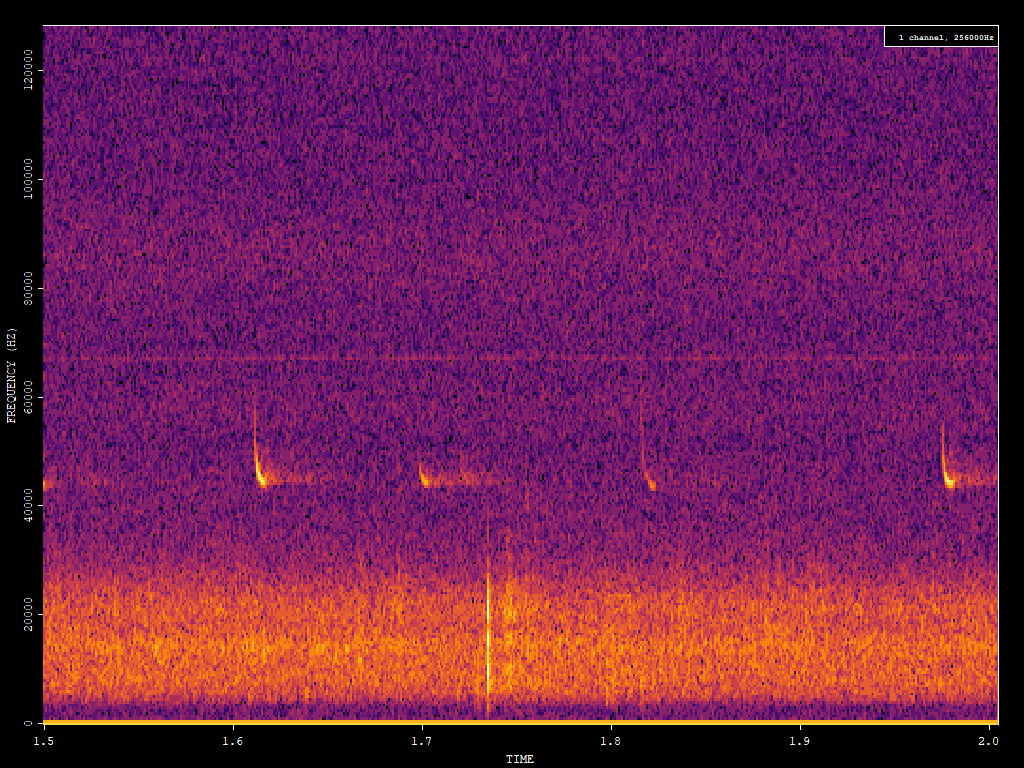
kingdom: Animalia
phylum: Chordata
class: Mammalia
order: Chiroptera
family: Vespertilionidae
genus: Pipistrellus
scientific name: Pipistrellus pipistrellus
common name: Common pipistrelle
